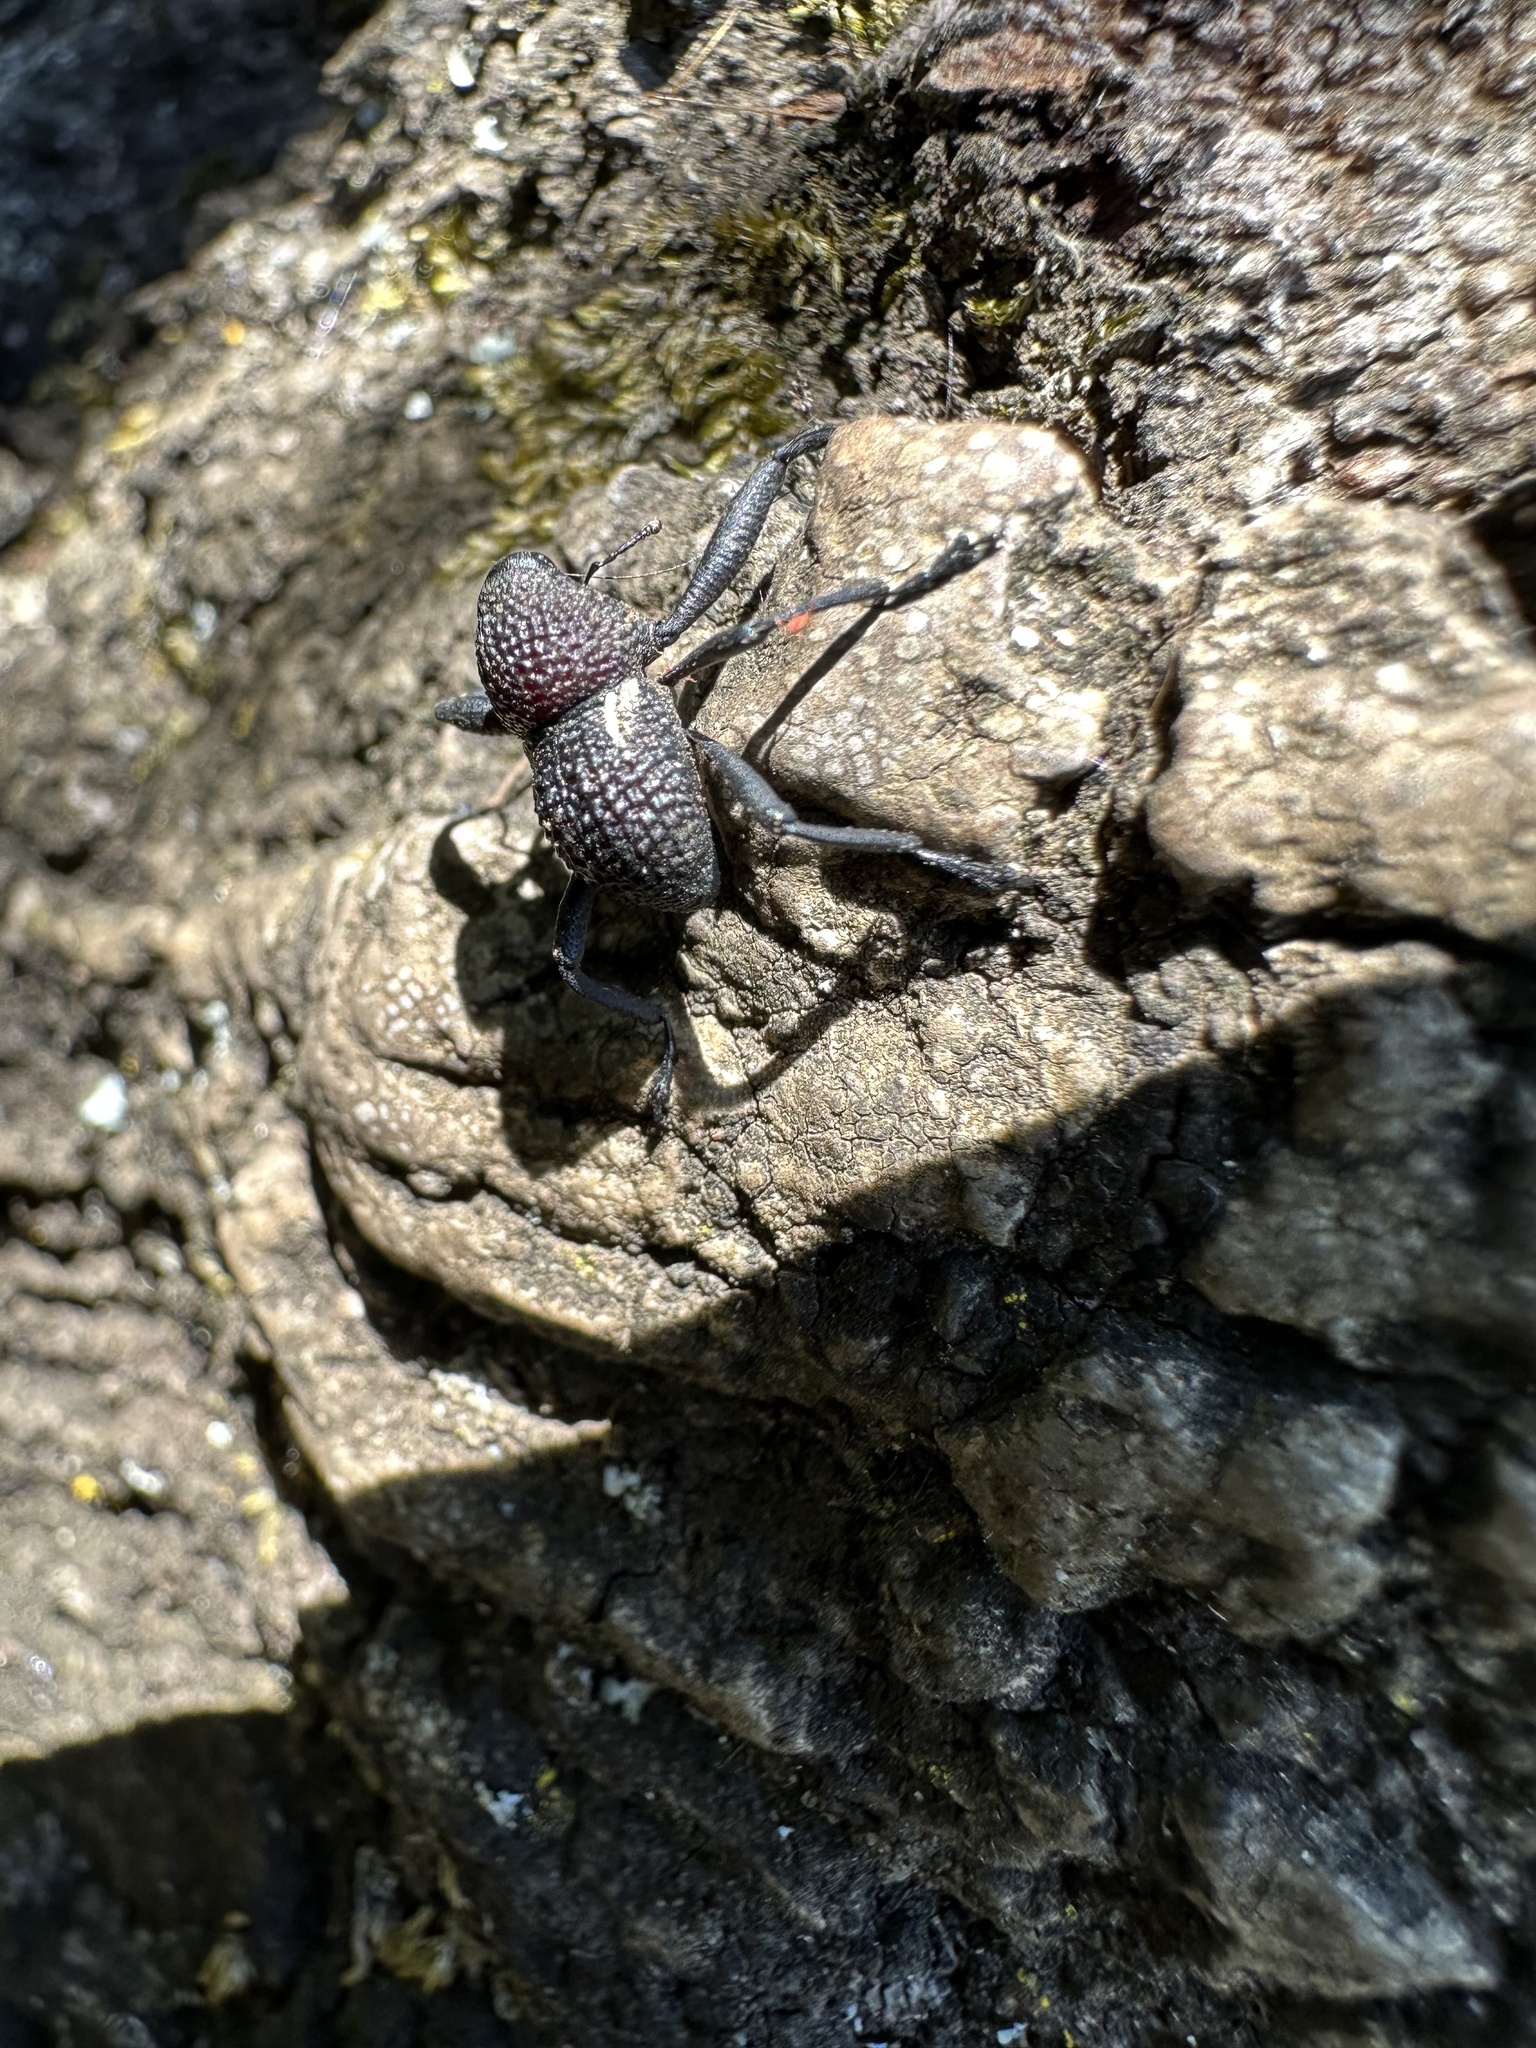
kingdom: Animalia
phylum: Arthropoda
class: Insecta
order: Coleoptera
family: Curculionidae
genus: Rhyephenes
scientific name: Rhyephenes humeralis
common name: Araè±ita chilena del pino
